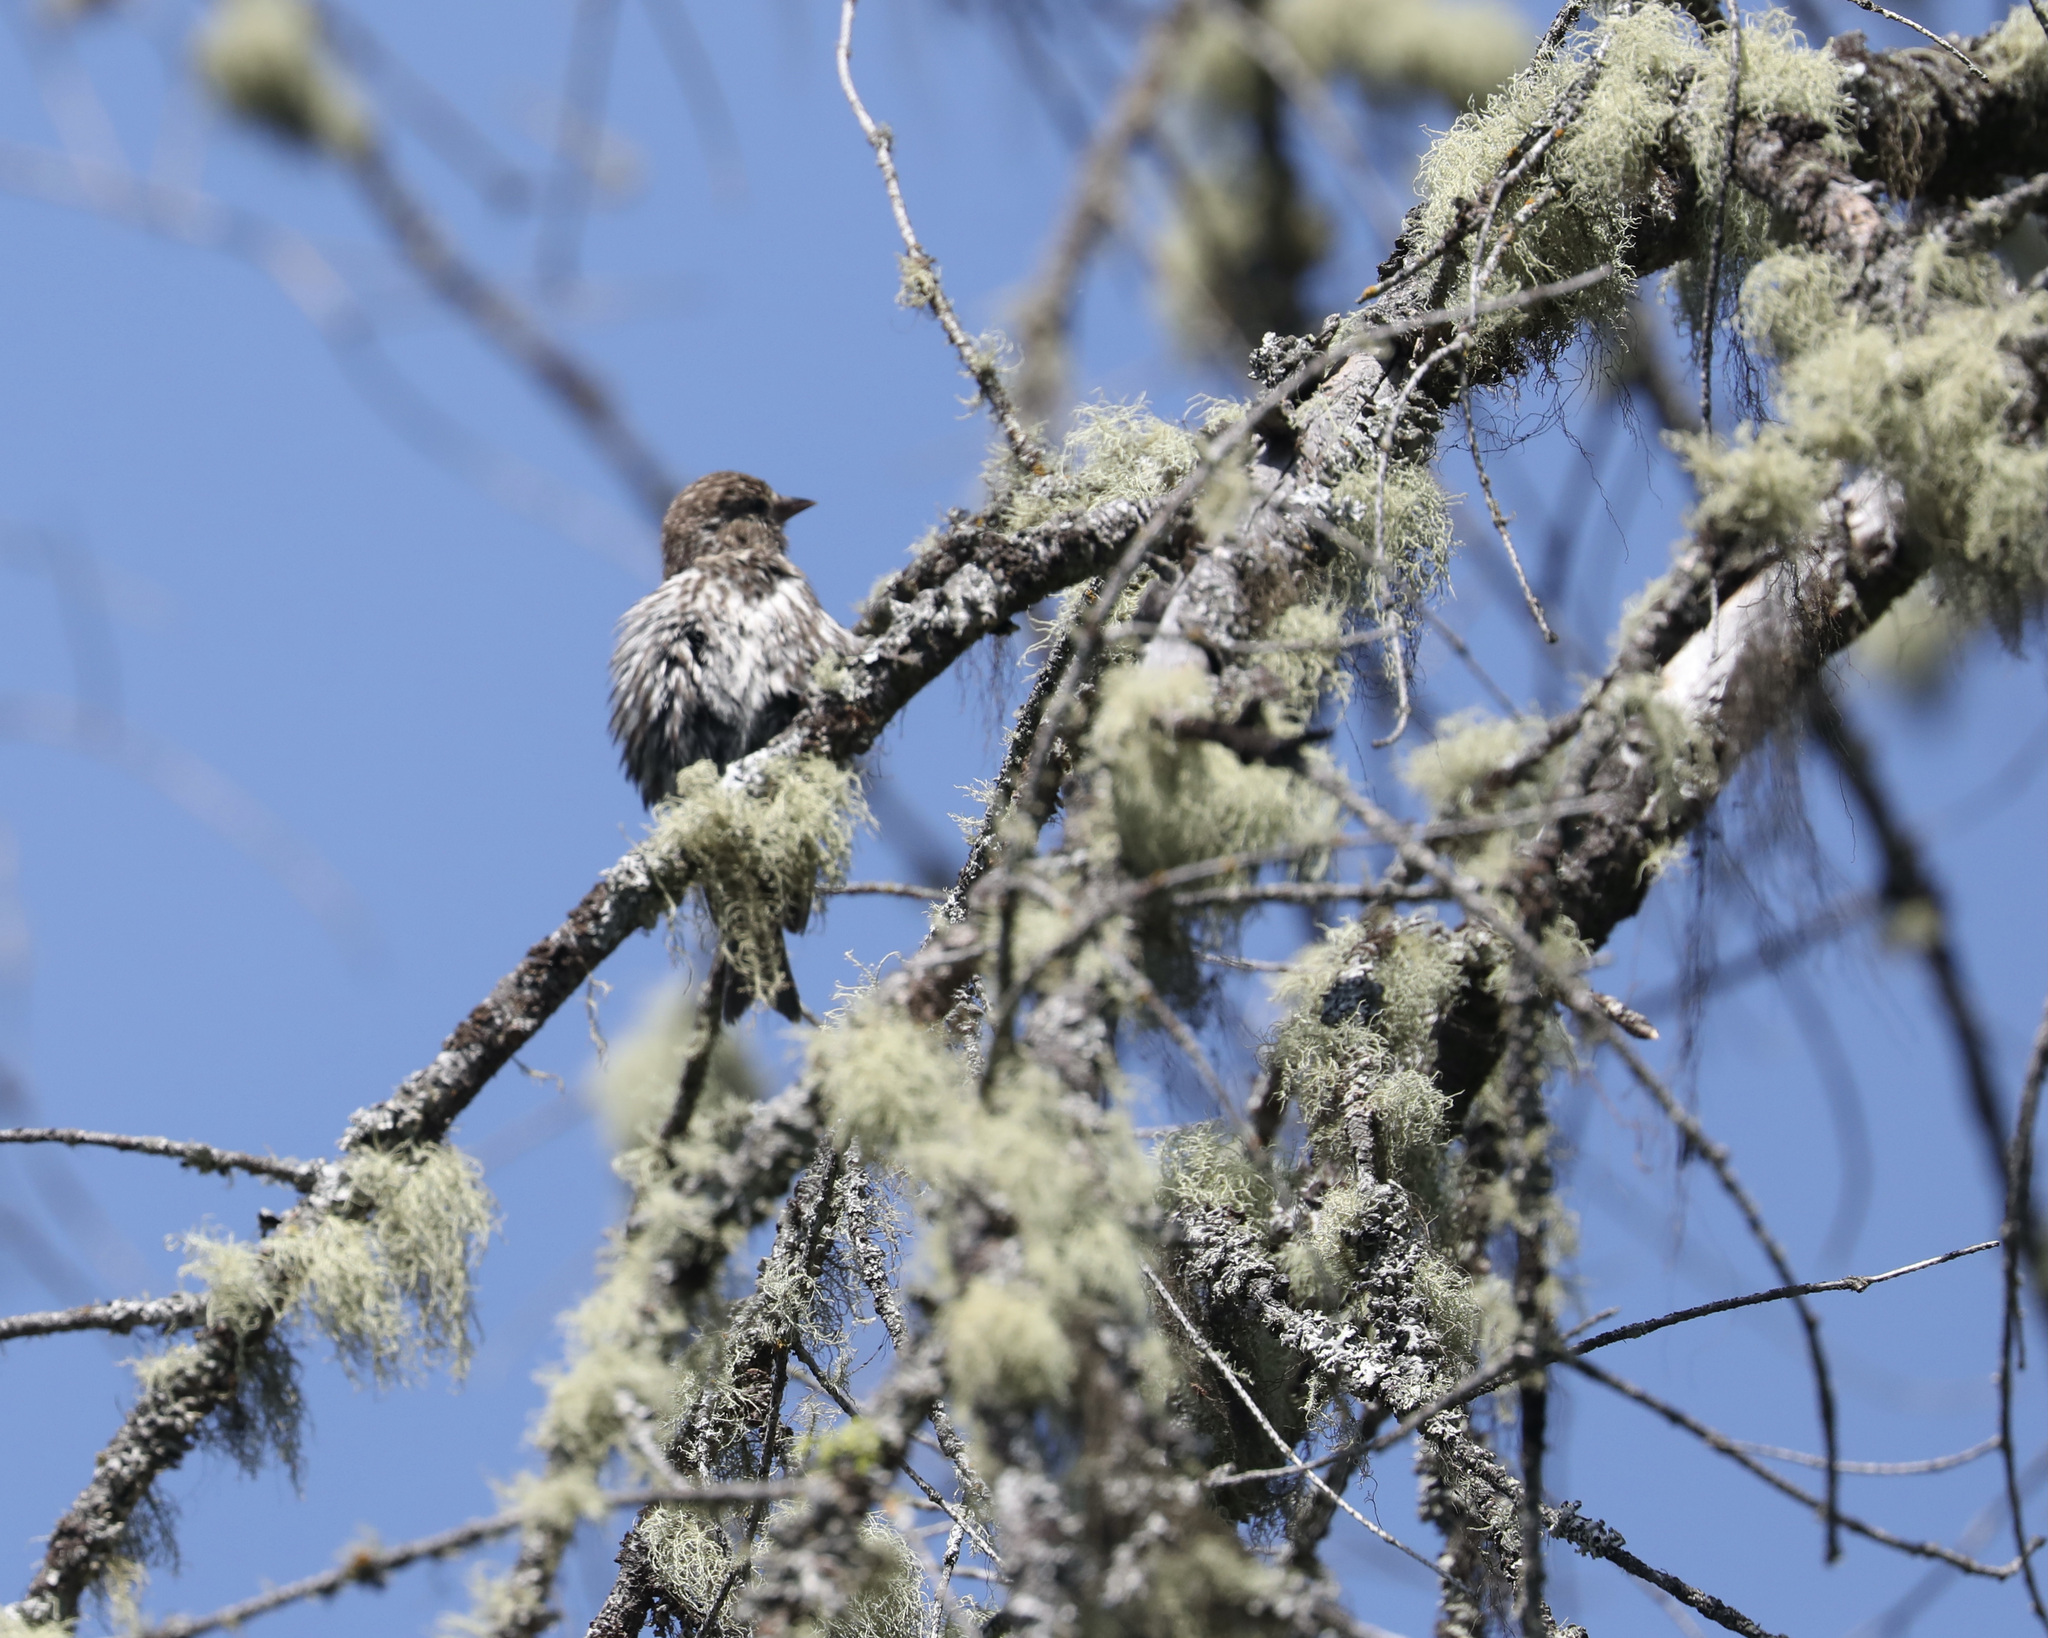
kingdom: Animalia
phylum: Chordata
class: Aves
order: Passeriformes
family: Fringillidae
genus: Spinus
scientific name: Spinus pinus
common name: Pine siskin
